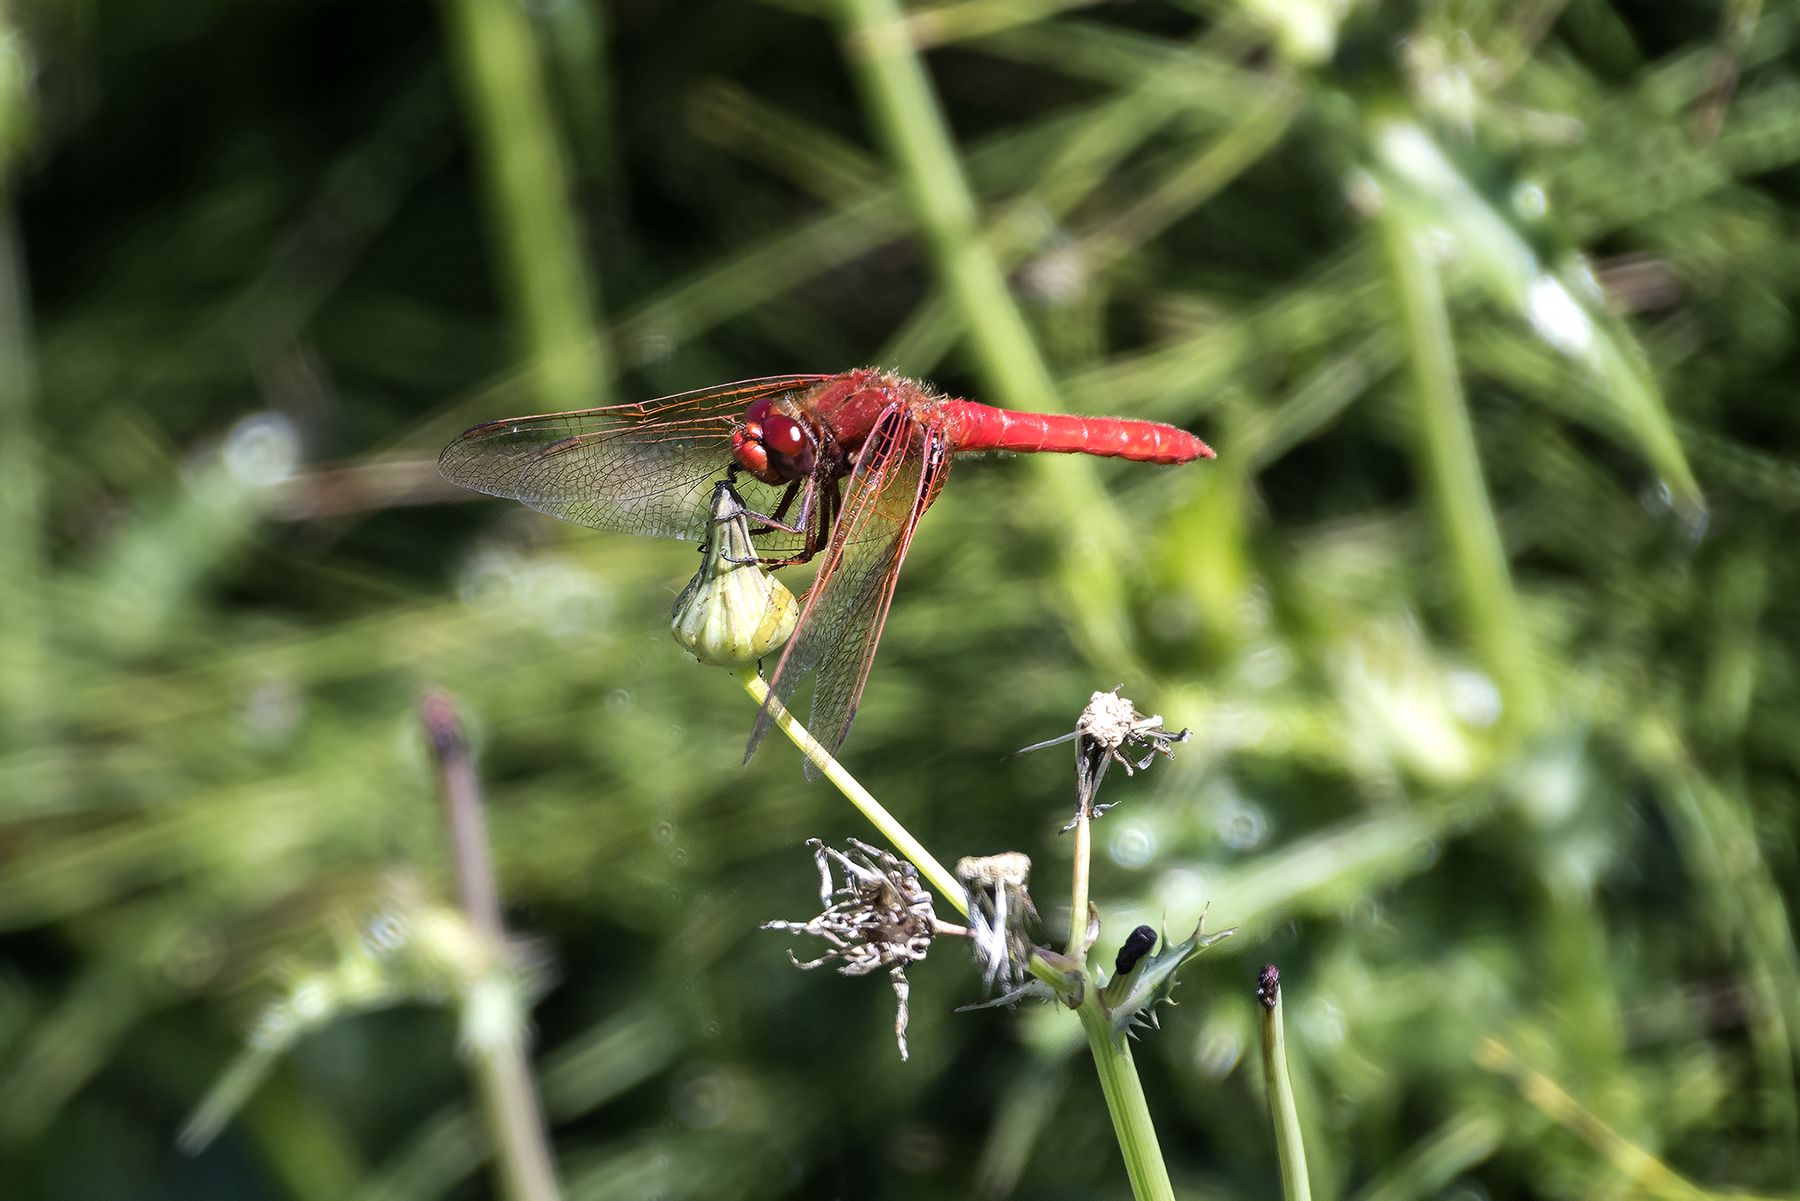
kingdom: Animalia
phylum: Arthropoda
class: Insecta
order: Odonata
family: Libellulidae
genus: Sympetrum
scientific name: Sympetrum illotum
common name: Cardinal meadowhawk
